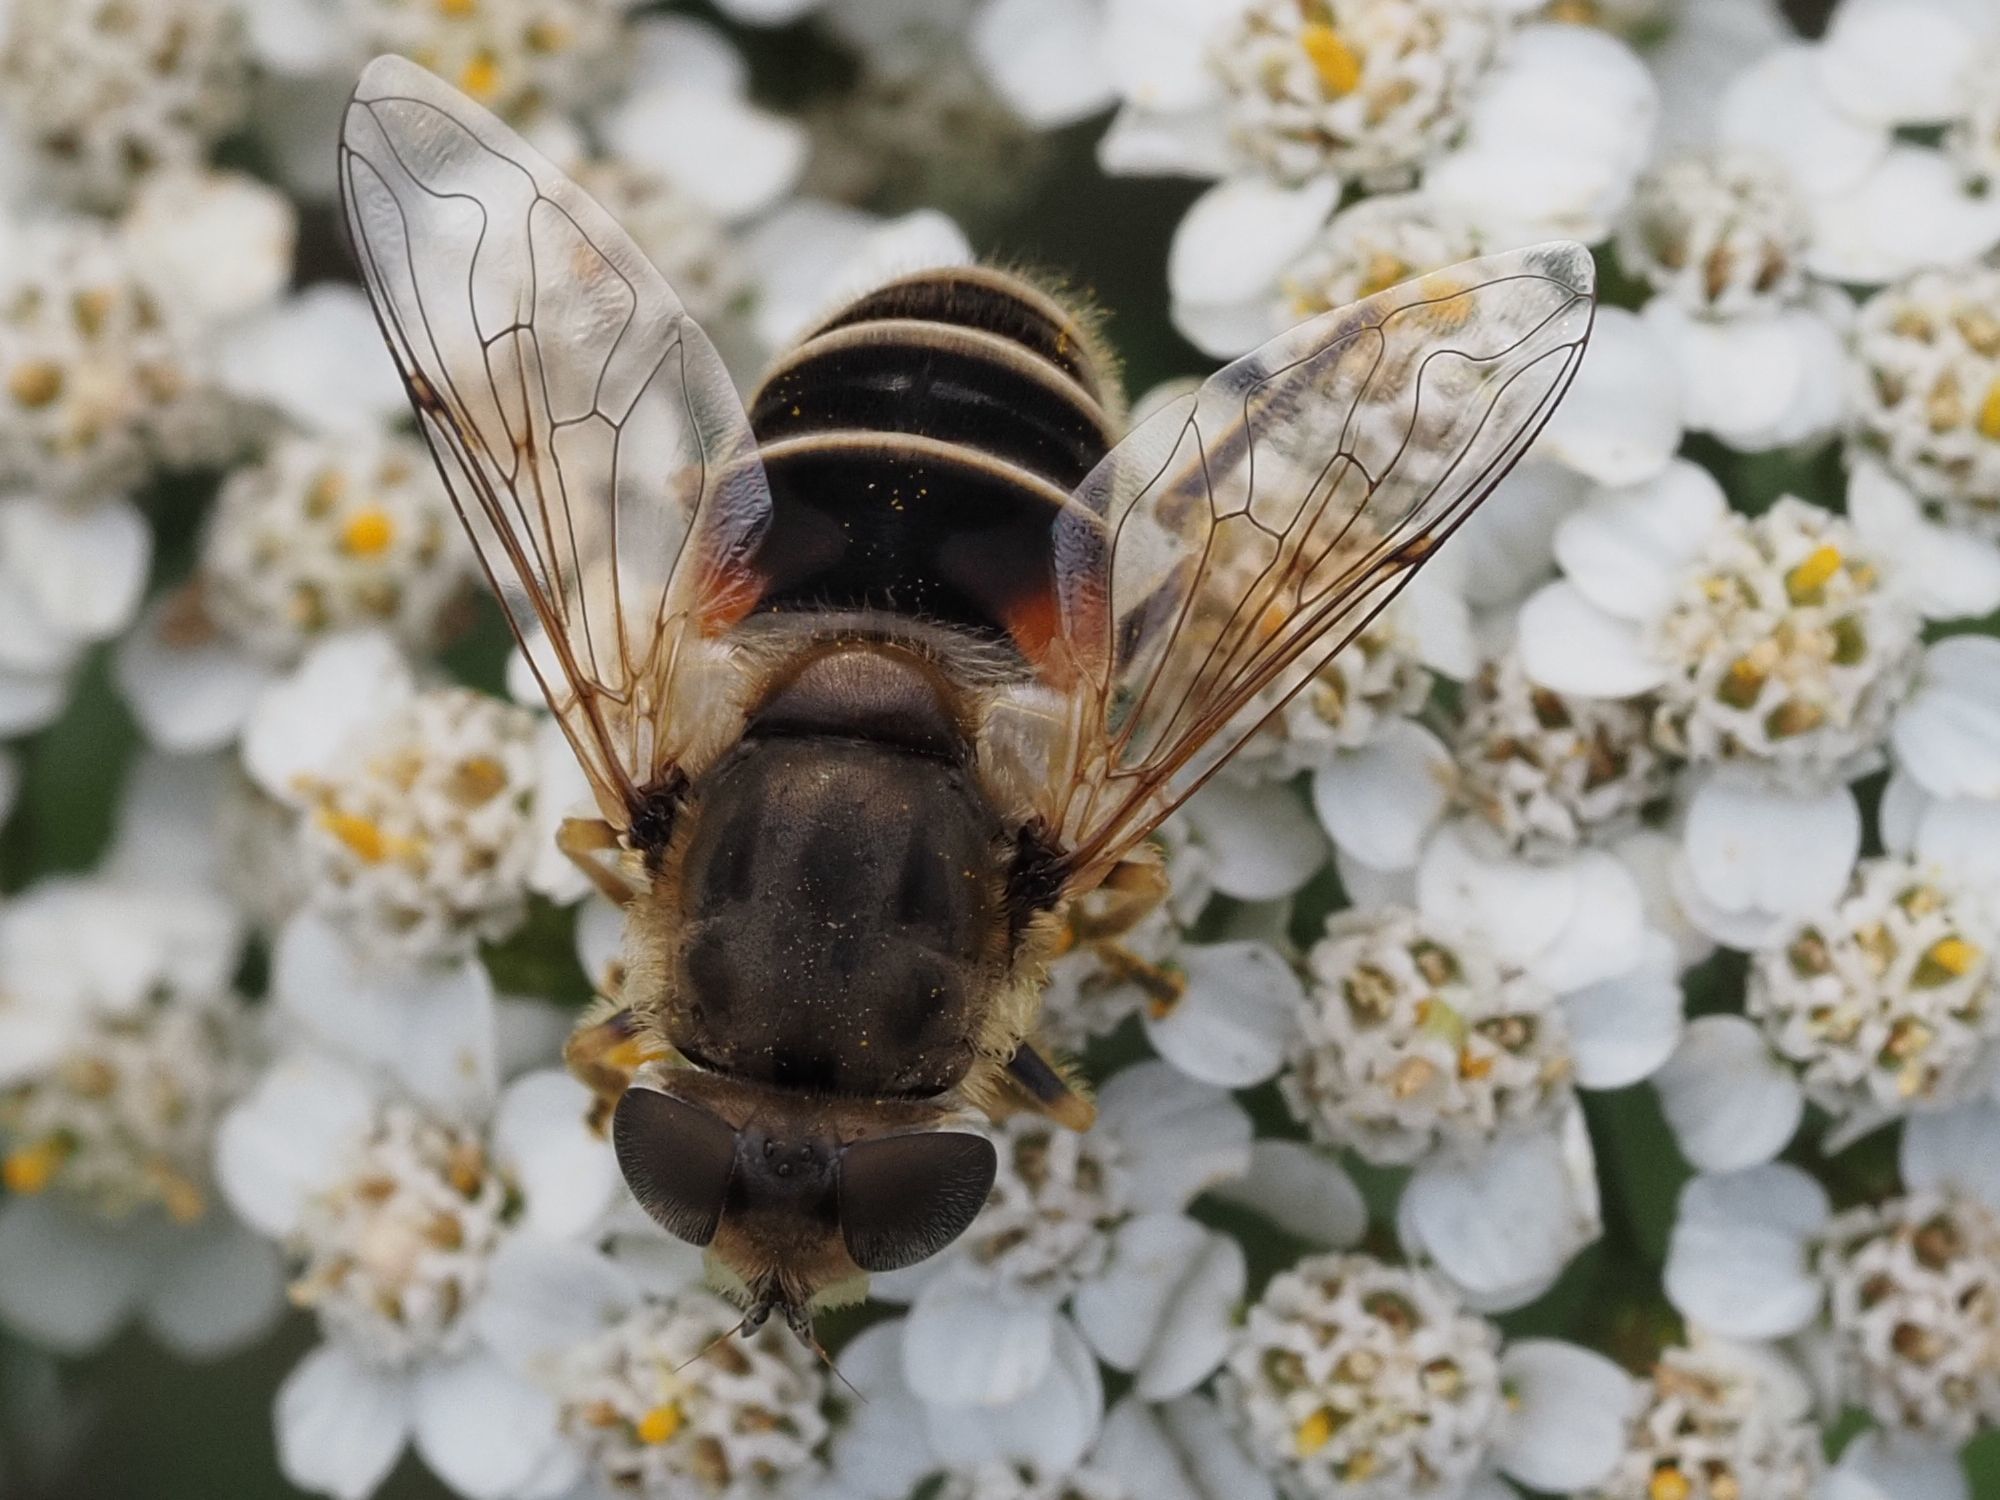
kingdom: Animalia
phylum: Arthropoda
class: Insecta
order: Diptera
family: Syrphidae
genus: Eristalis
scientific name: Eristalis arbustorum
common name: Hover fly
